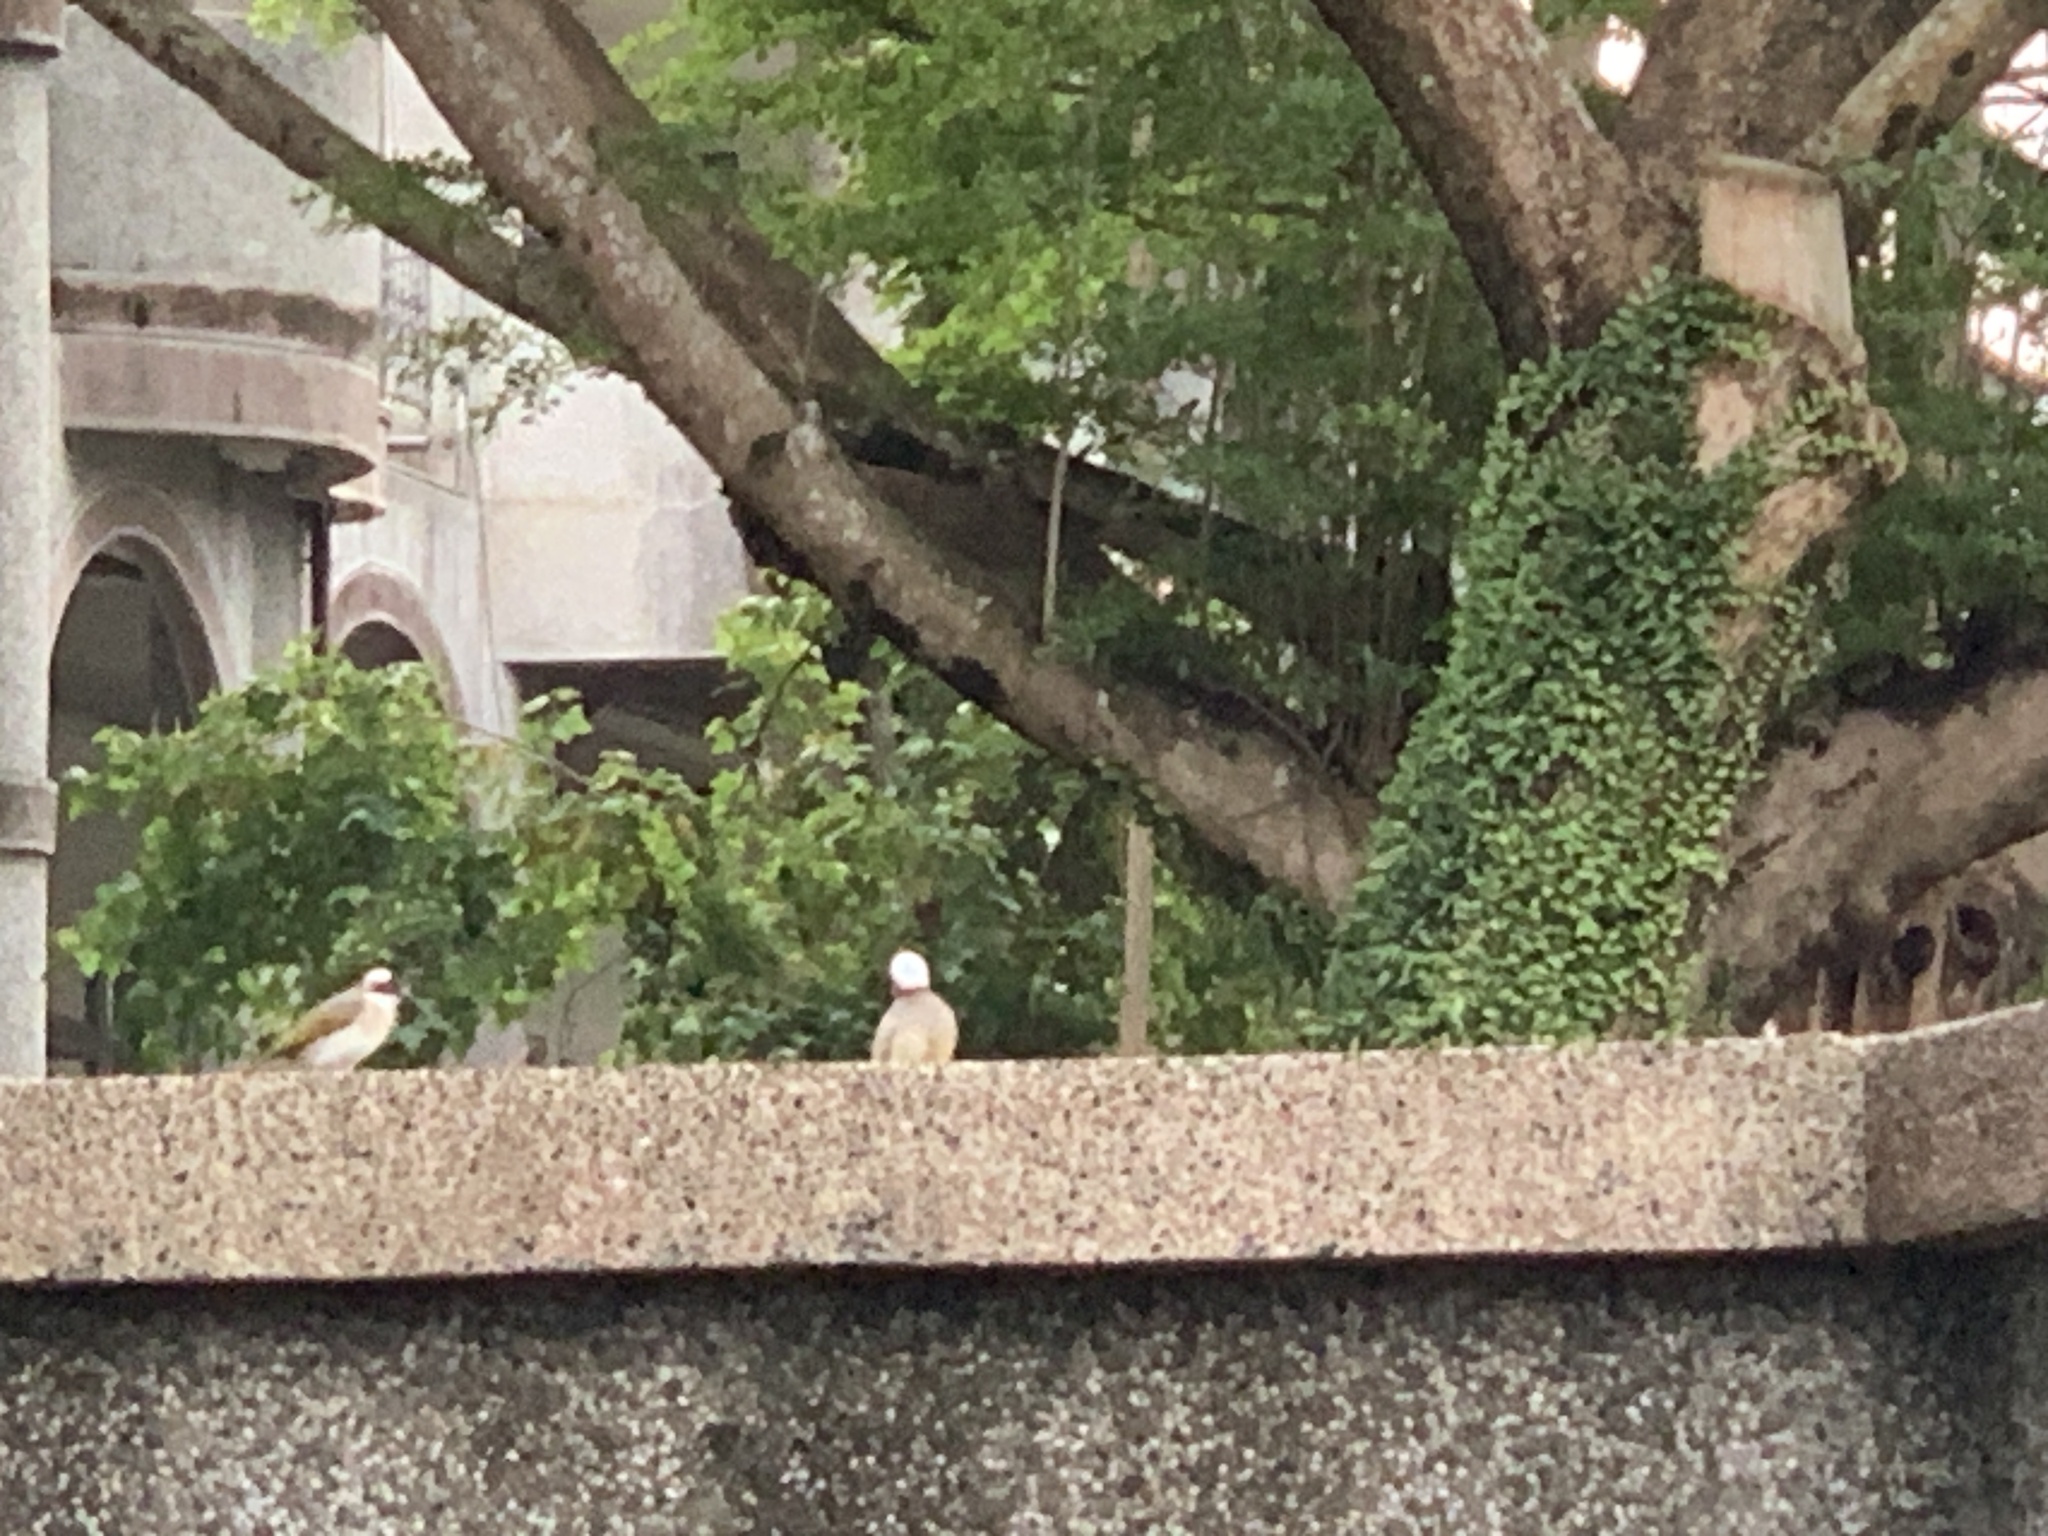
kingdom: Animalia
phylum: Chordata
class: Aves
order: Passeriformes
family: Pycnonotidae
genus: Pycnonotus
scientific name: Pycnonotus sinensis
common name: Light-vented bulbul
